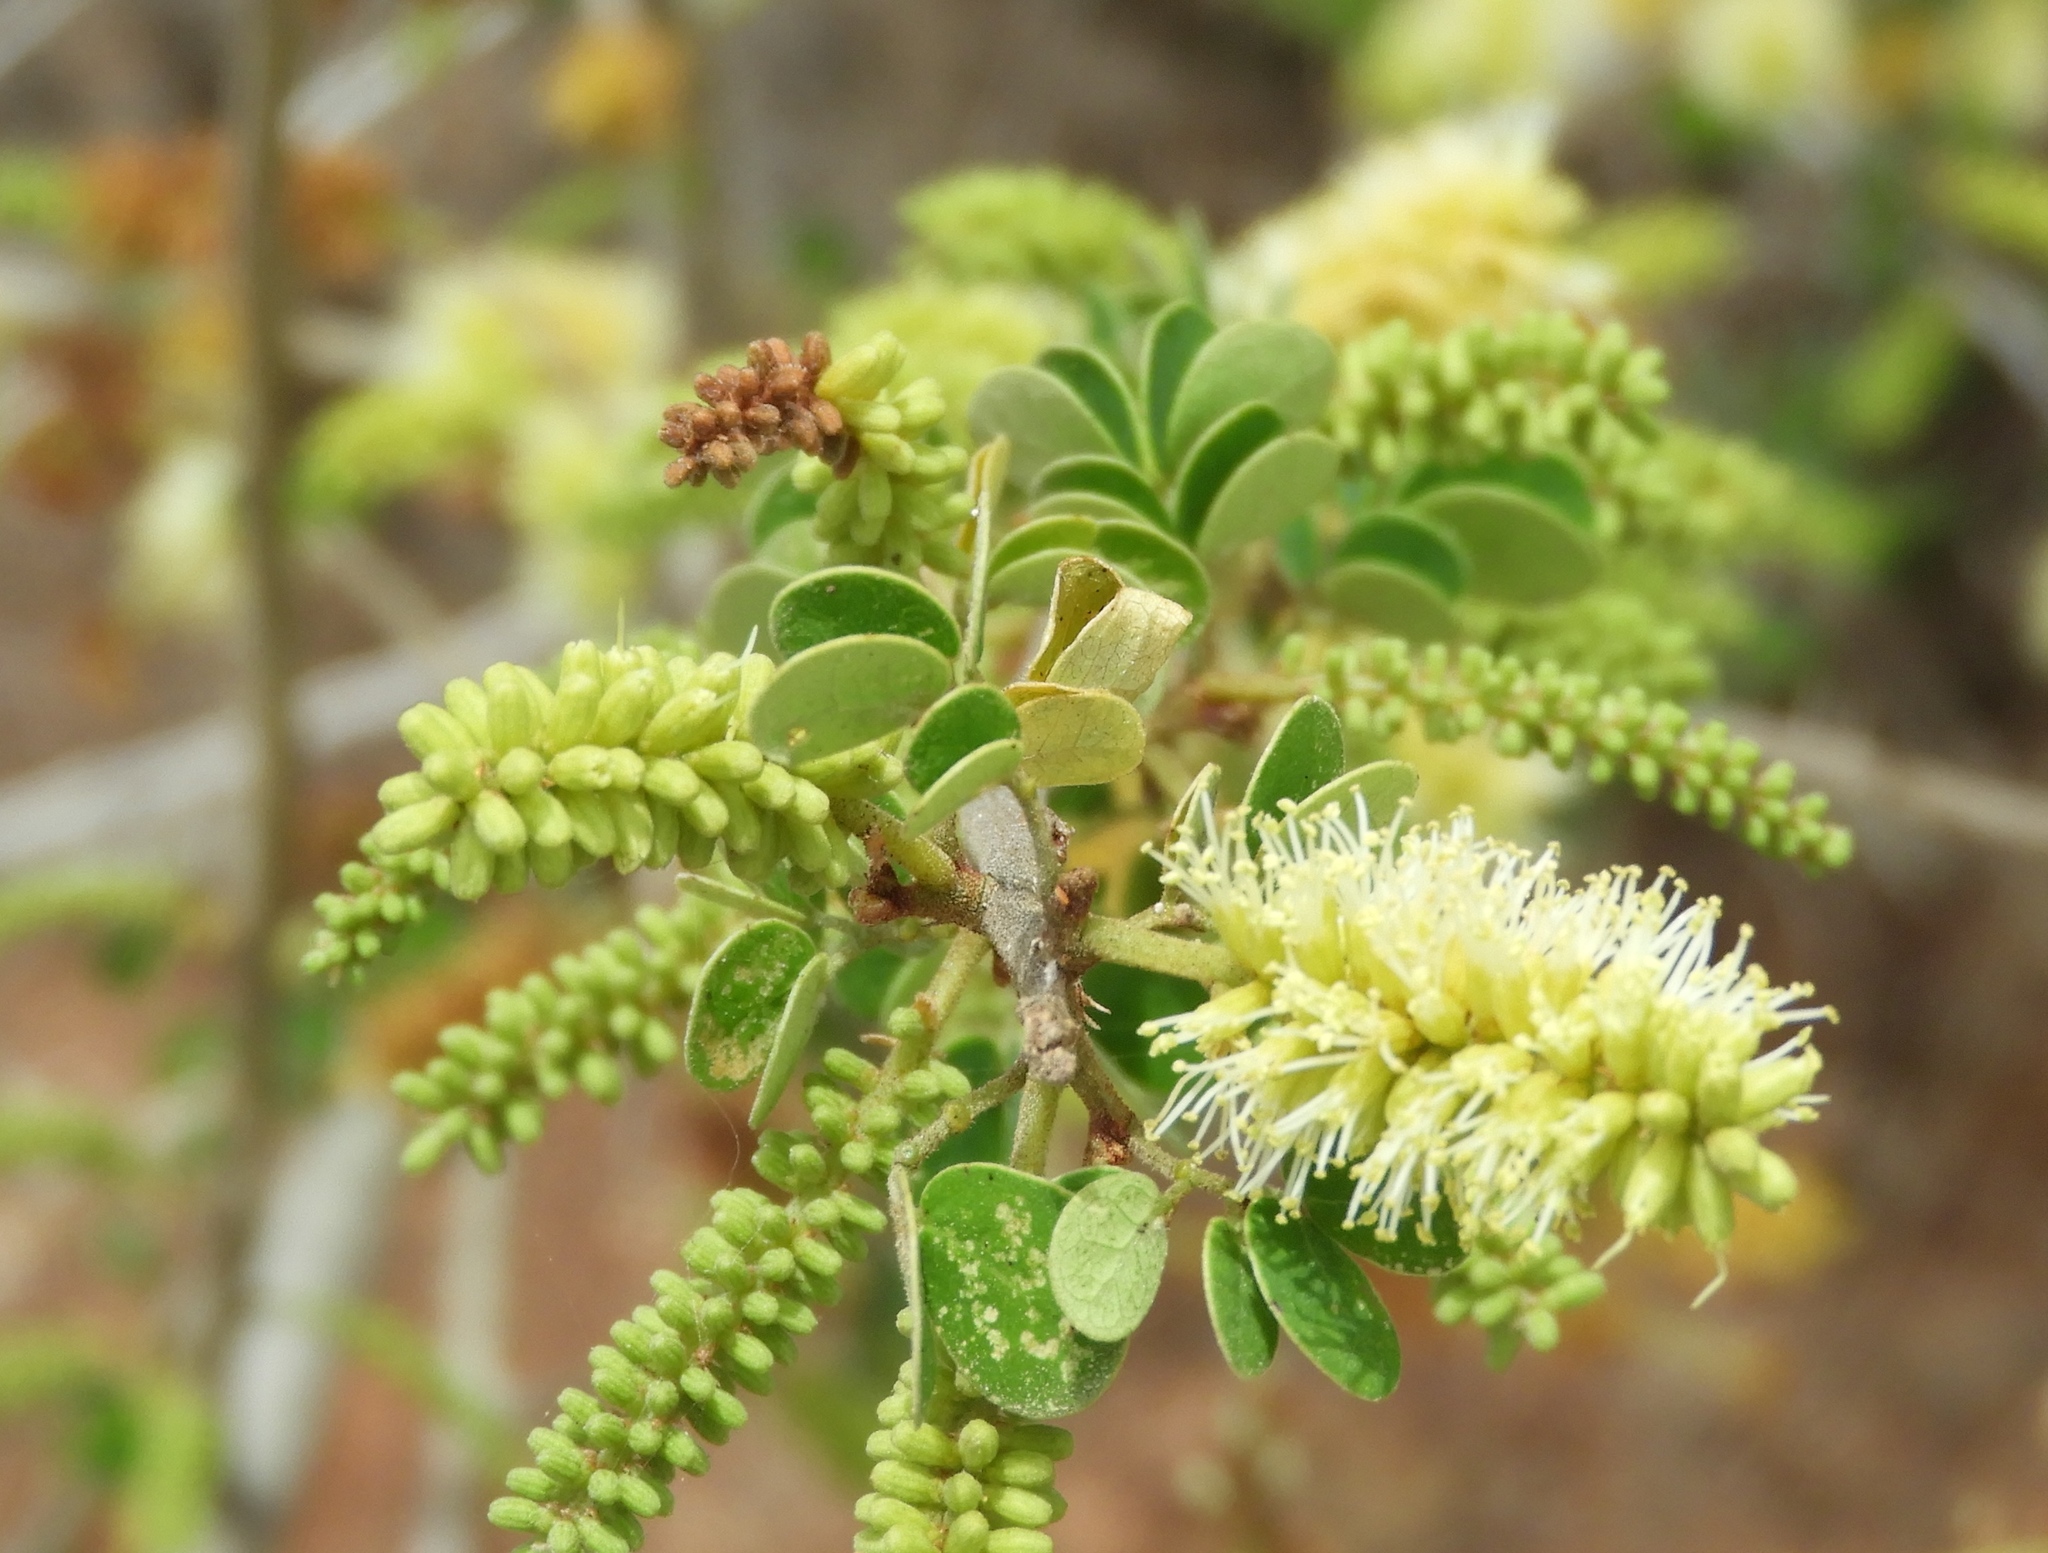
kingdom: Plantae
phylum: Tracheophyta
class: Magnoliopsida
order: Fabales
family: Fabaceae
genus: Microlobius
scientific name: Microlobius foetidus
